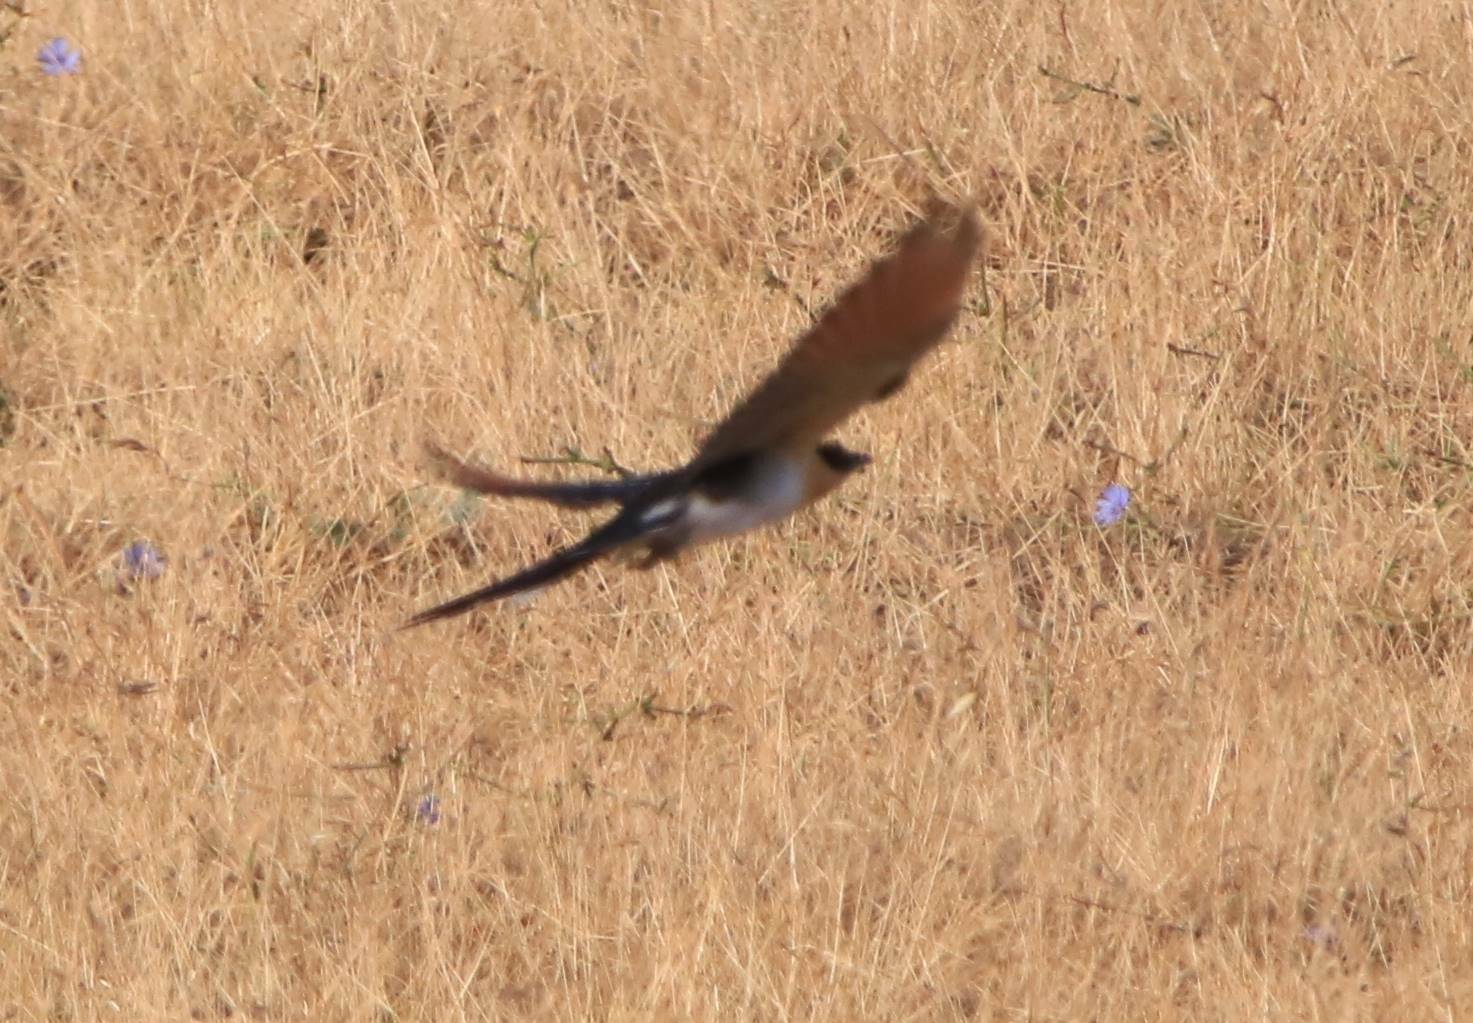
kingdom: Animalia
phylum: Chordata
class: Aves
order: Cuculiformes
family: Cuculidae
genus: Clamator
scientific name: Clamator glandarius
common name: Great spotted cuckoo
